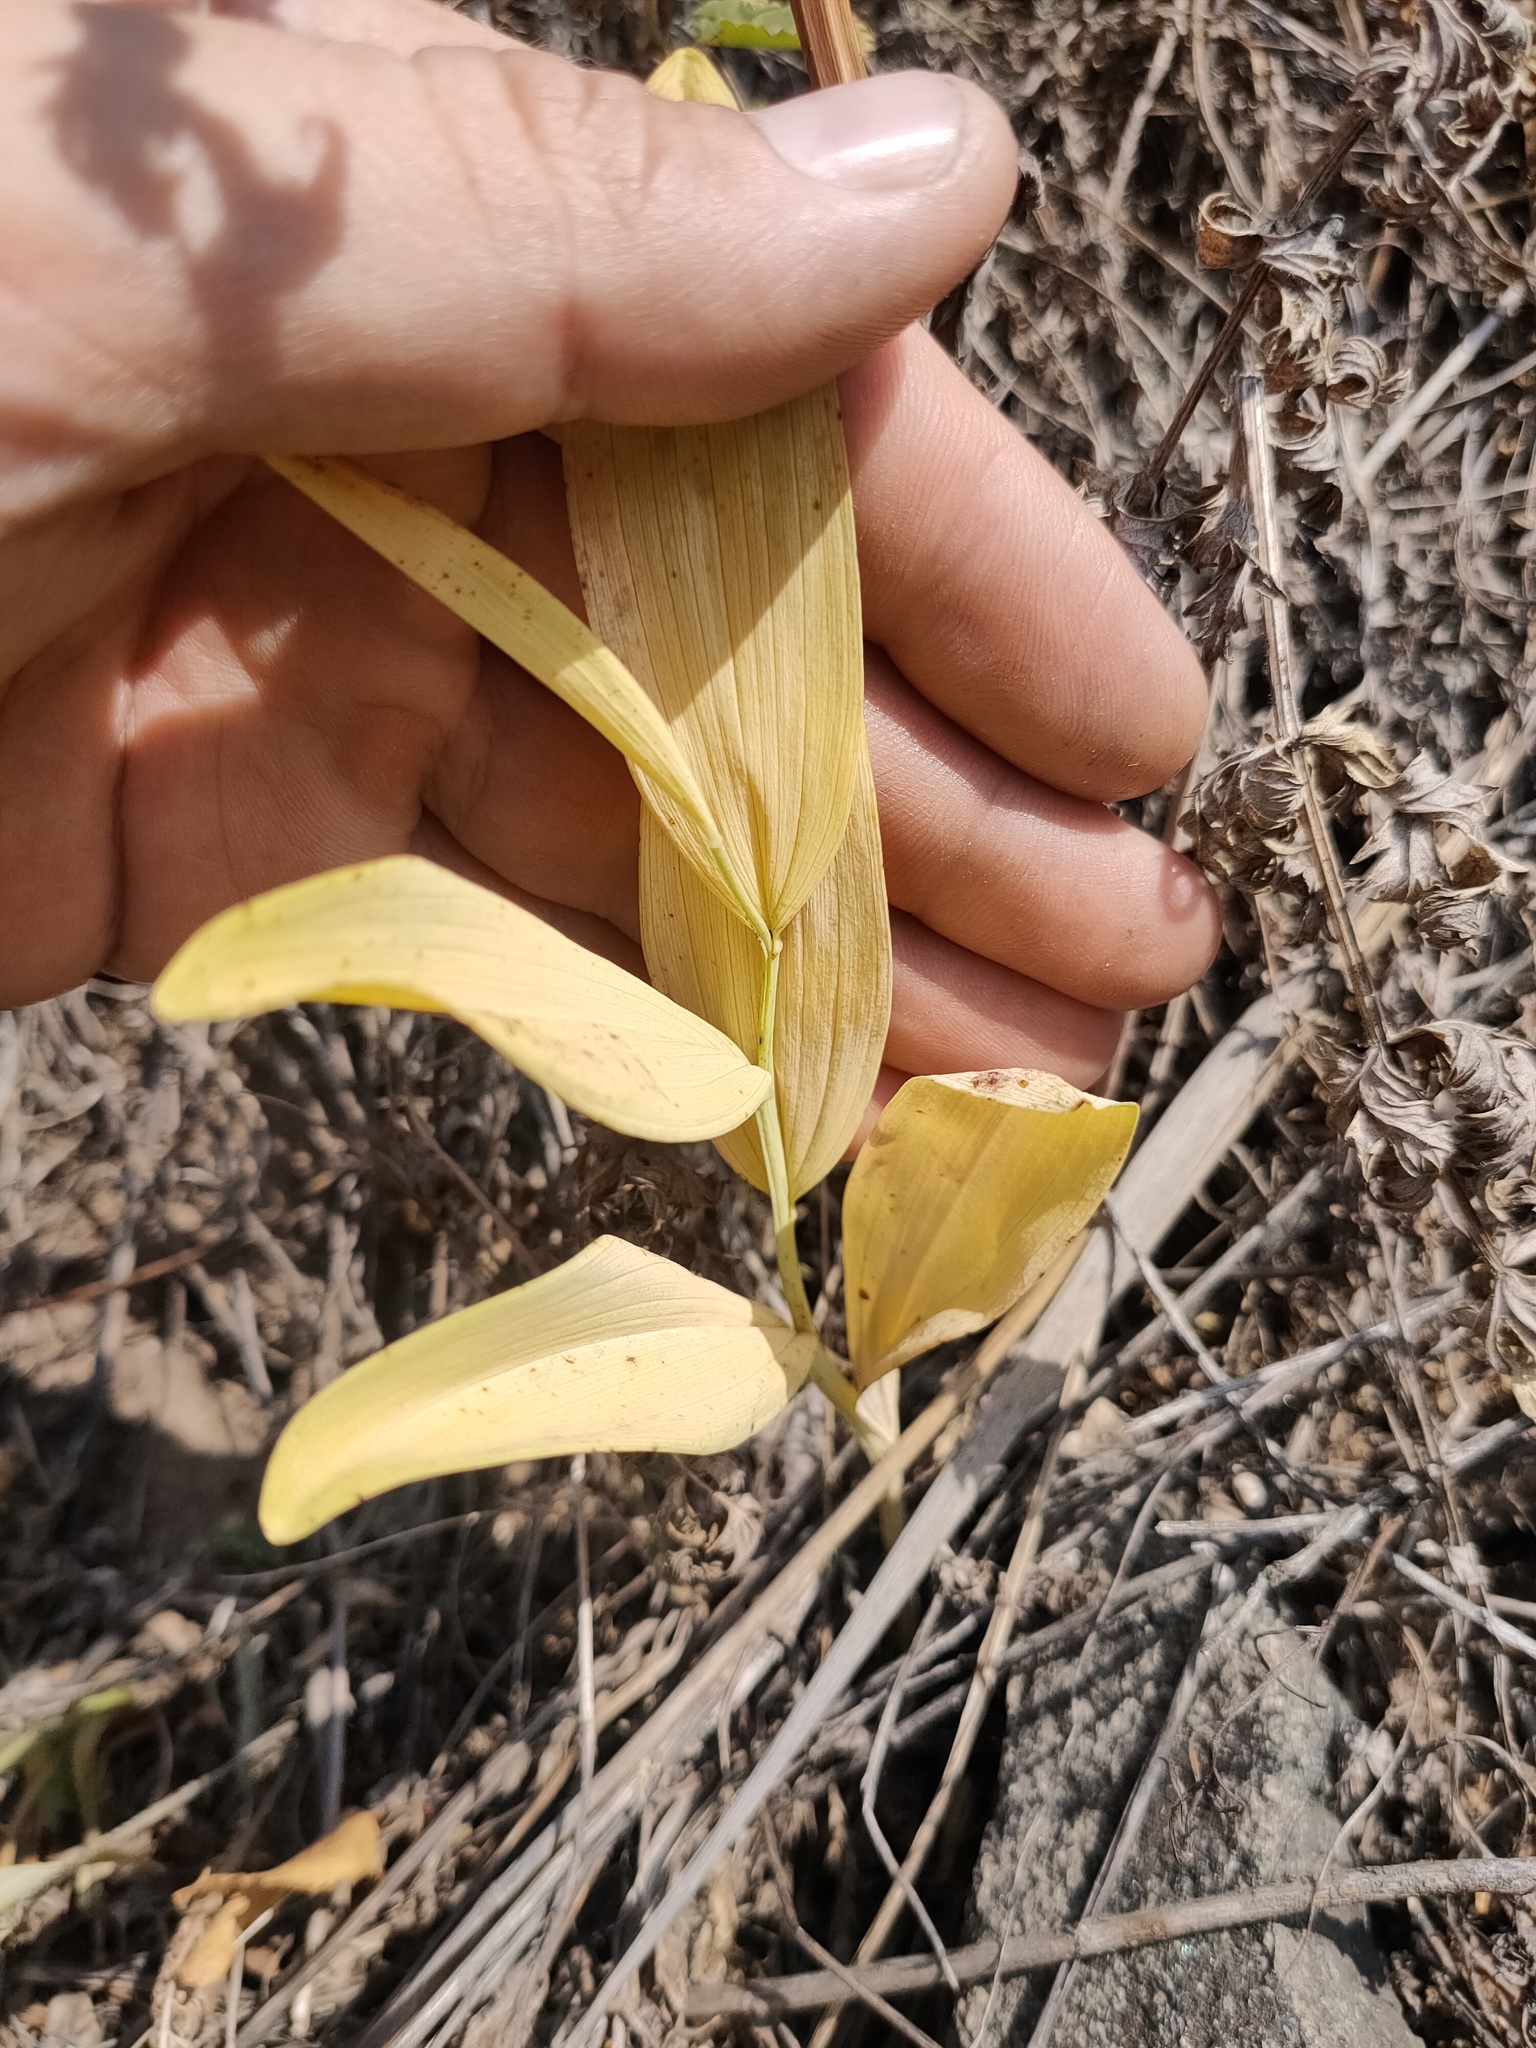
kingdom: Plantae
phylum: Tracheophyta
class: Liliopsida
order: Asparagales
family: Asparagaceae
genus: Polygonatum
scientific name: Polygonatum odoratum
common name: Angular solomon's-seal
